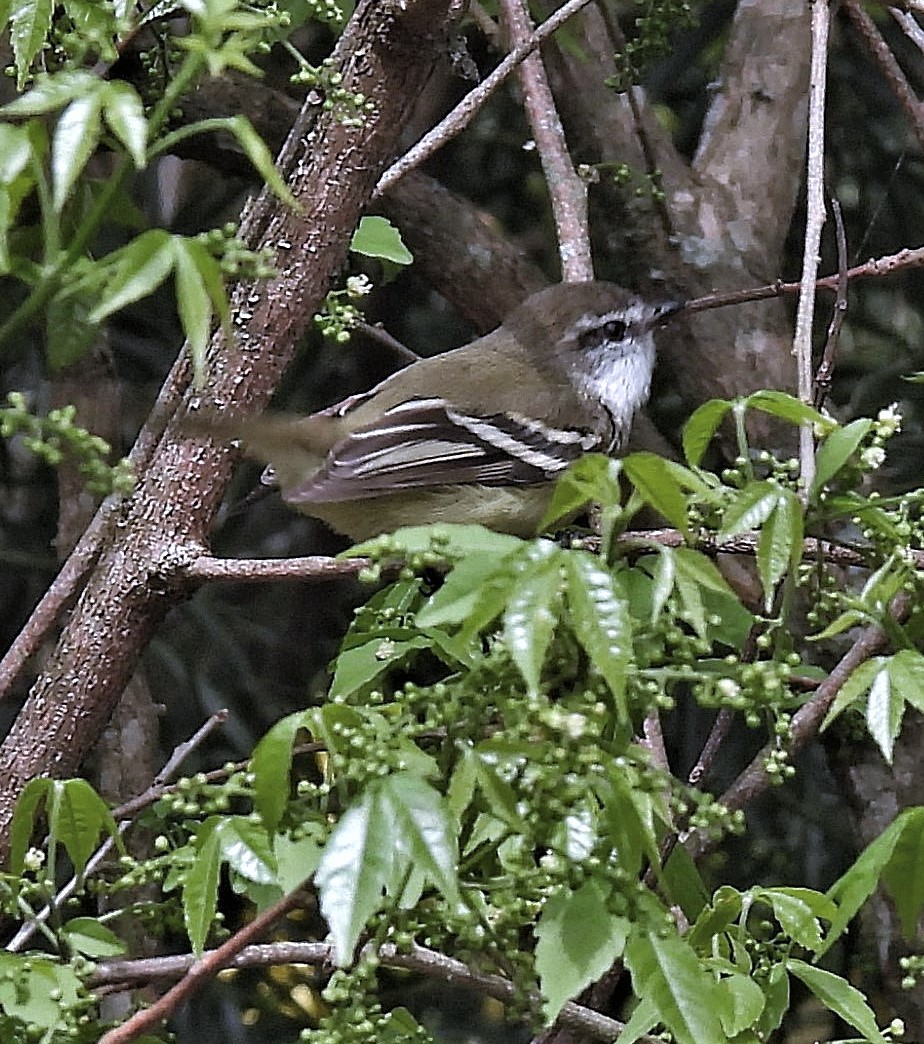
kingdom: Animalia
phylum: Chordata
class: Aves
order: Passeriformes
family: Tyrannidae
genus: Mecocerculus
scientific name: Mecocerculus leucophrys
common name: White-throated tyrannulet
